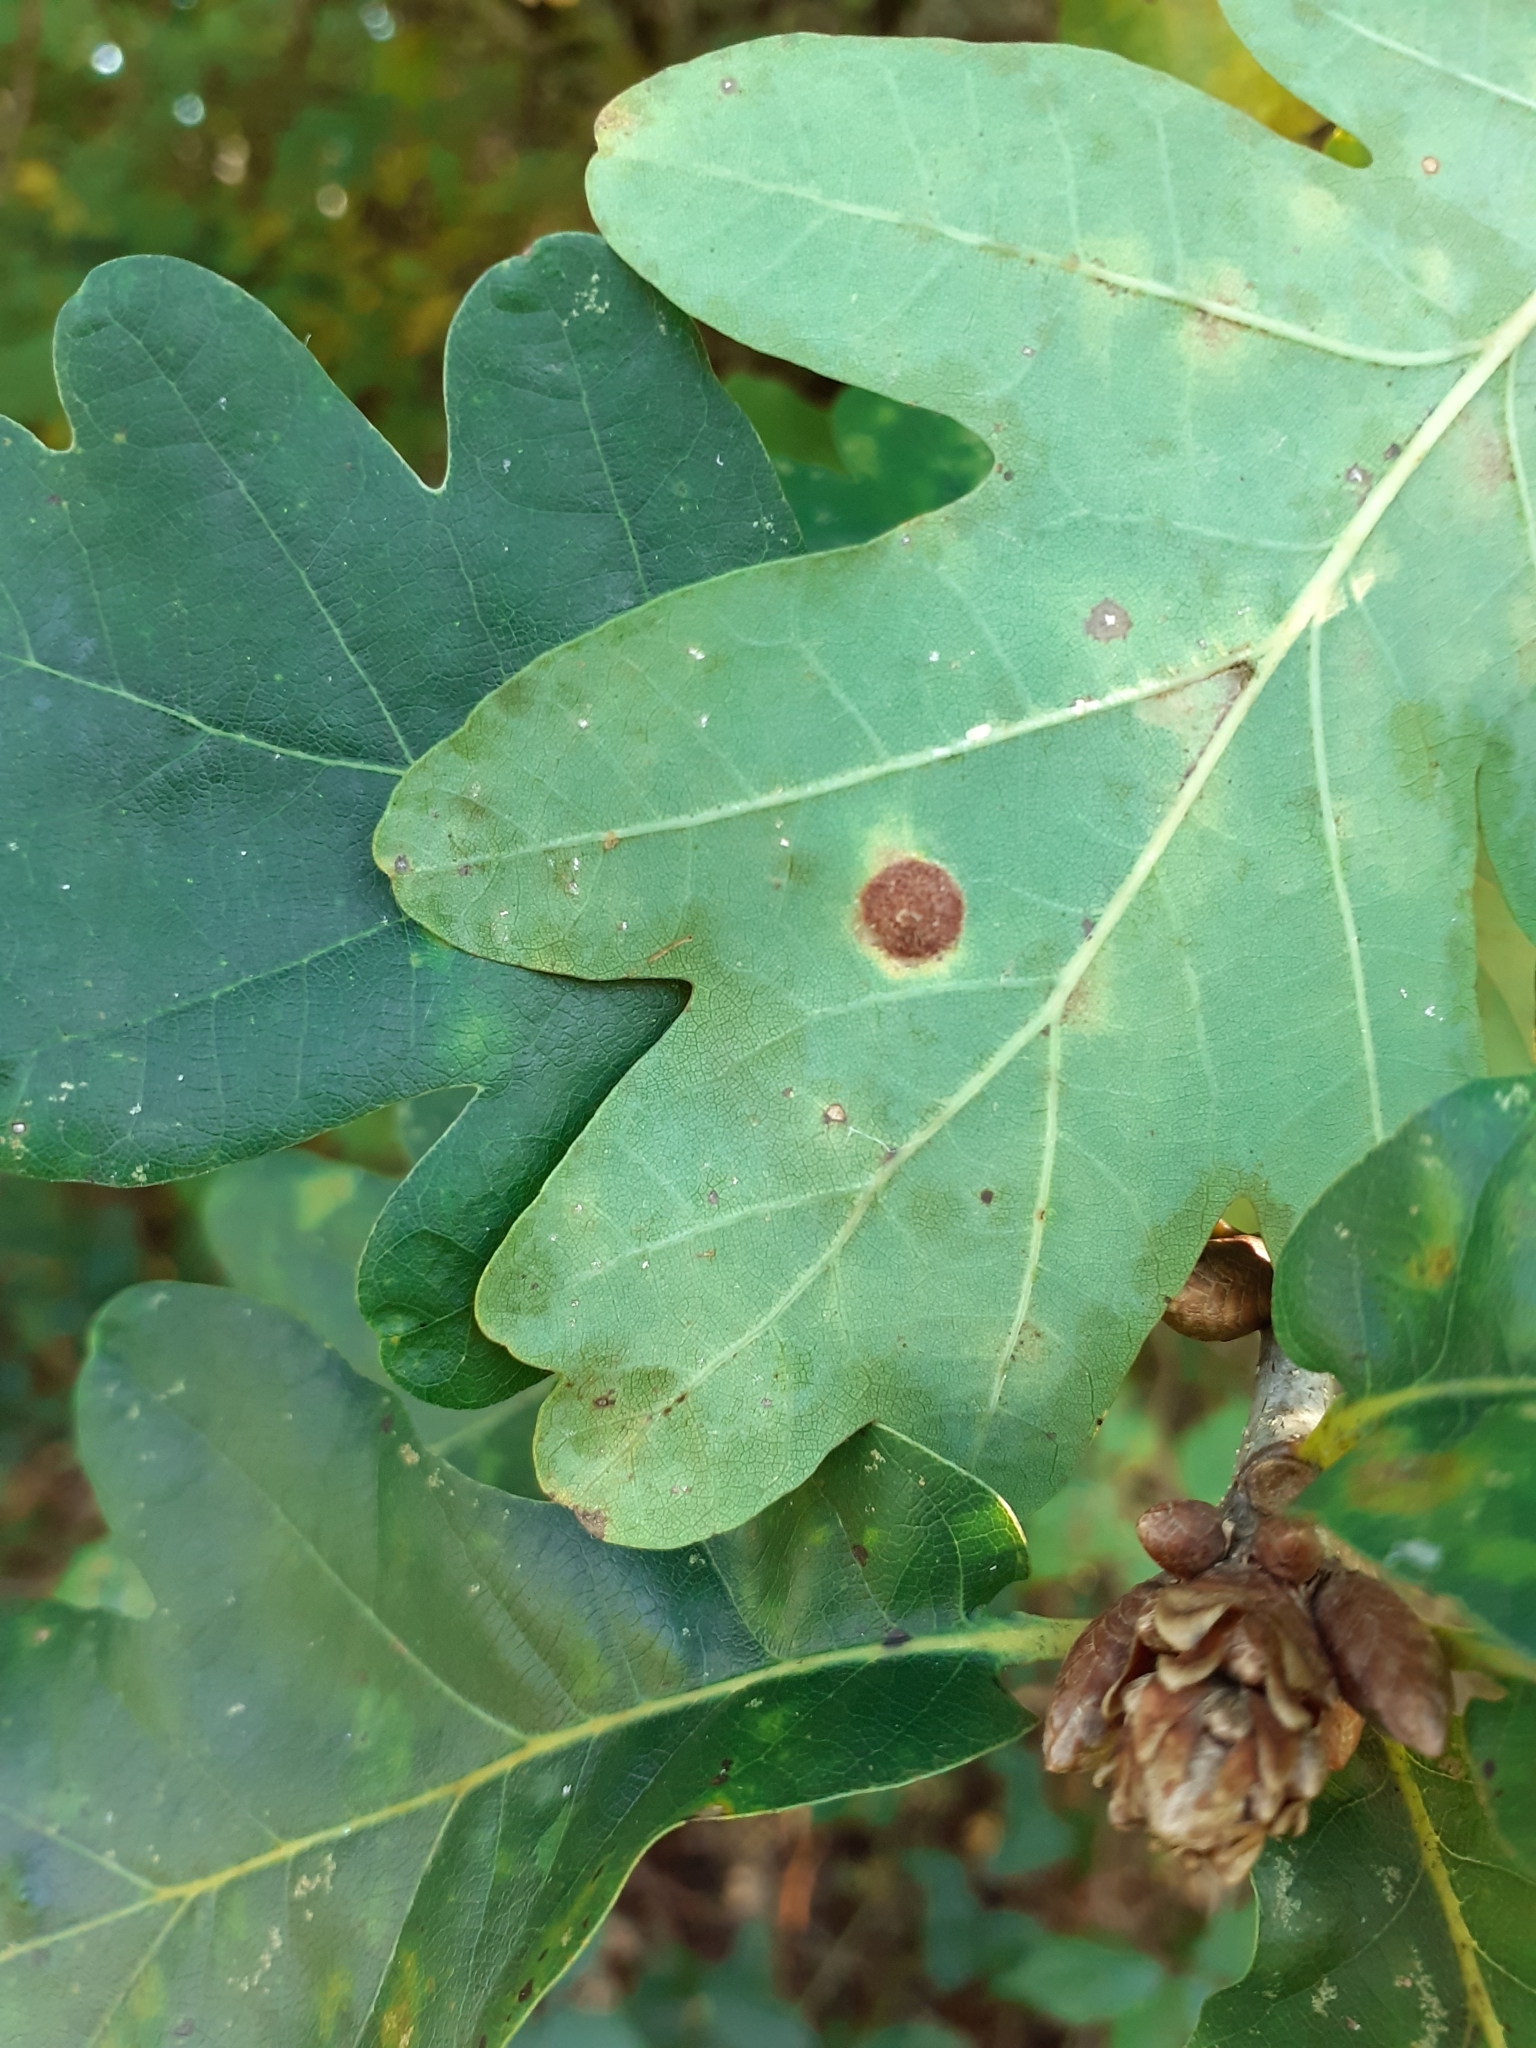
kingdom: Animalia
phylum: Arthropoda
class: Insecta
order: Hymenoptera
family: Cynipidae
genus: Neuroterus
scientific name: Neuroterus quercusbaccarum
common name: Common spangle gall
